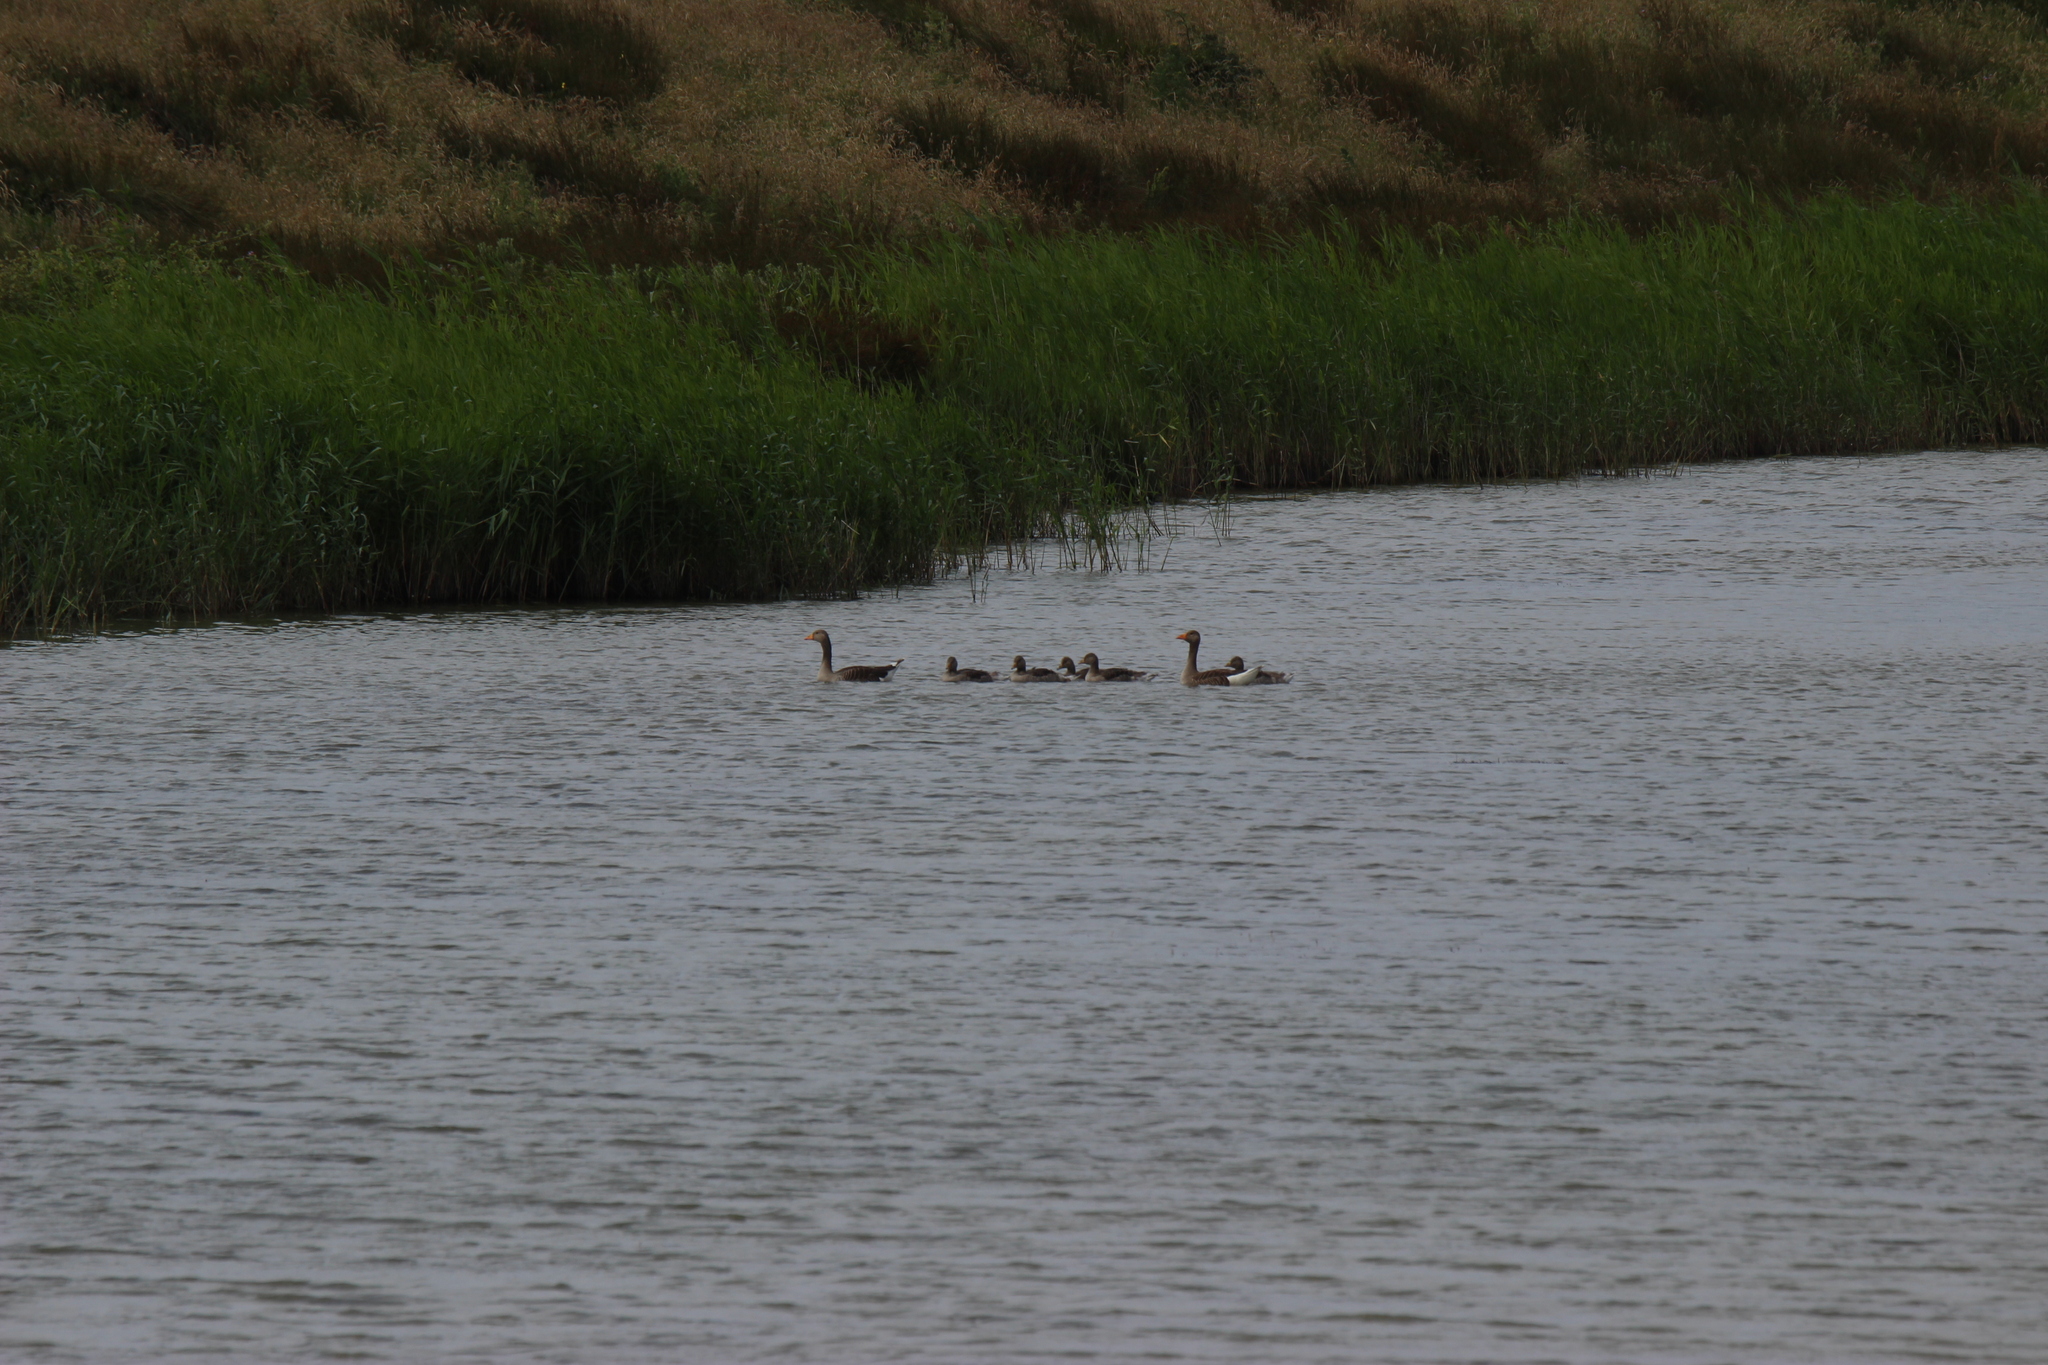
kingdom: Animalia
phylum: Chordata
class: Aves
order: Anseriformes
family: Anatidae
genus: Anser
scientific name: Anser anser
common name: Greylag goose
